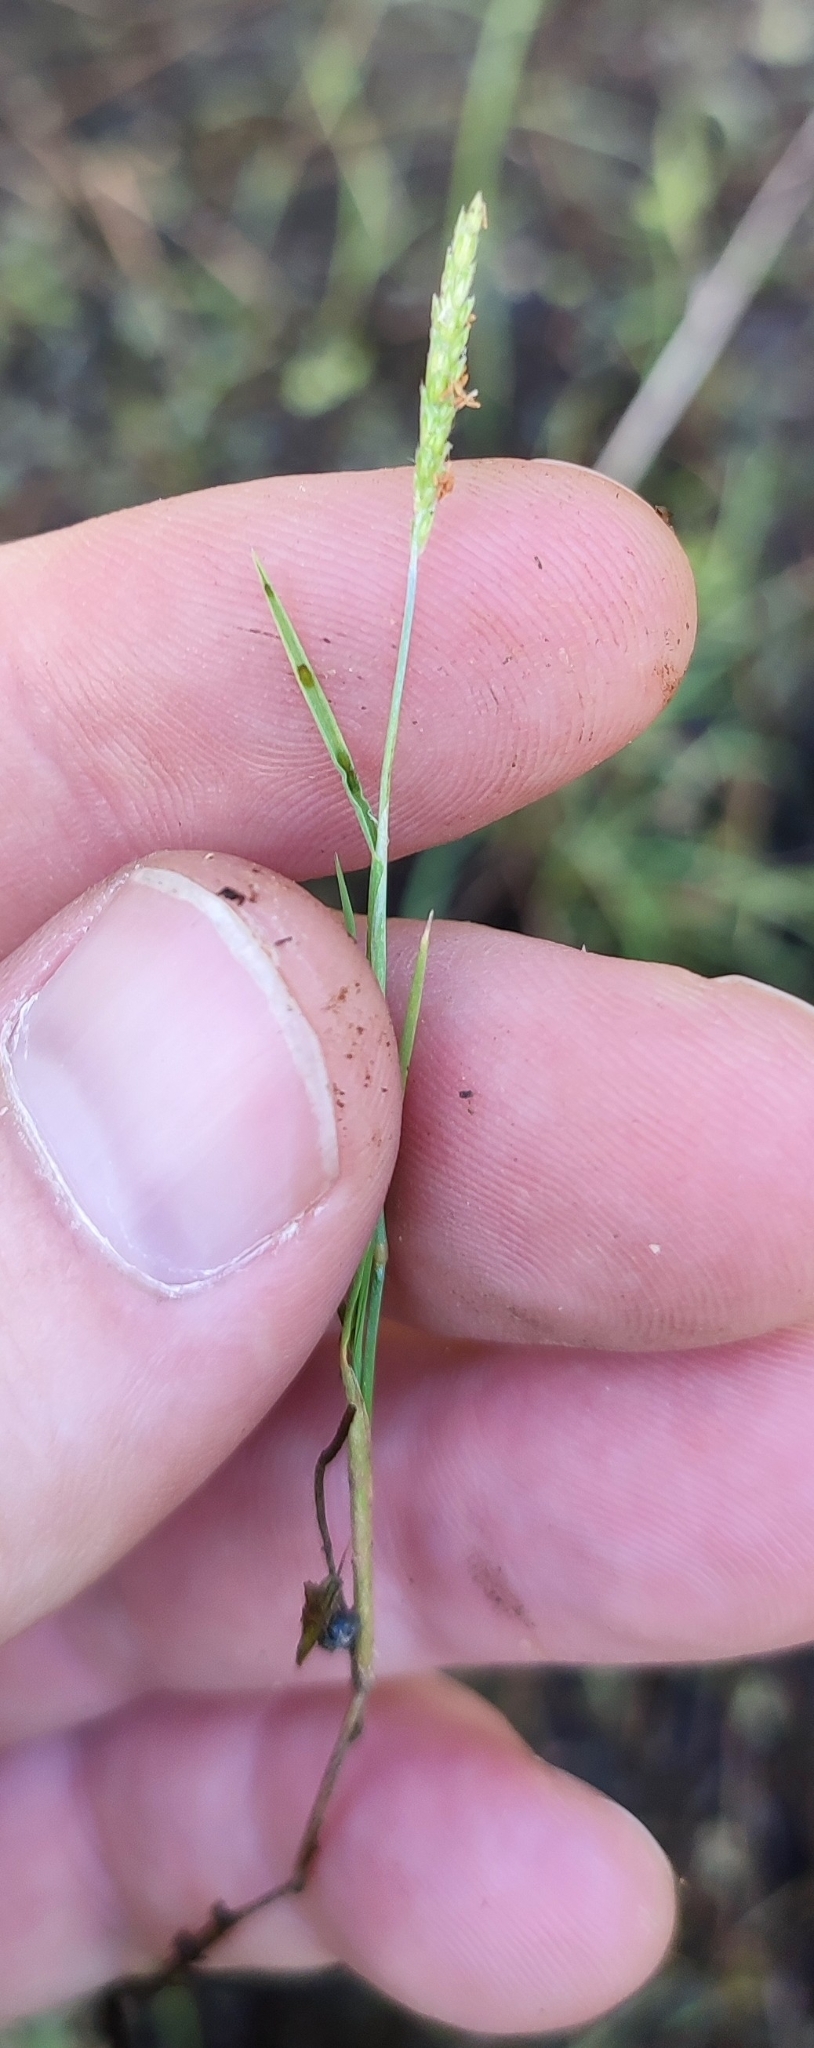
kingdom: Plantae
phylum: Tracheophyta
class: Liliopsida
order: Poales
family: Poaceae
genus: Alopecurus
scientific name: Alopecurus aequalis
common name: Orange foxtail
